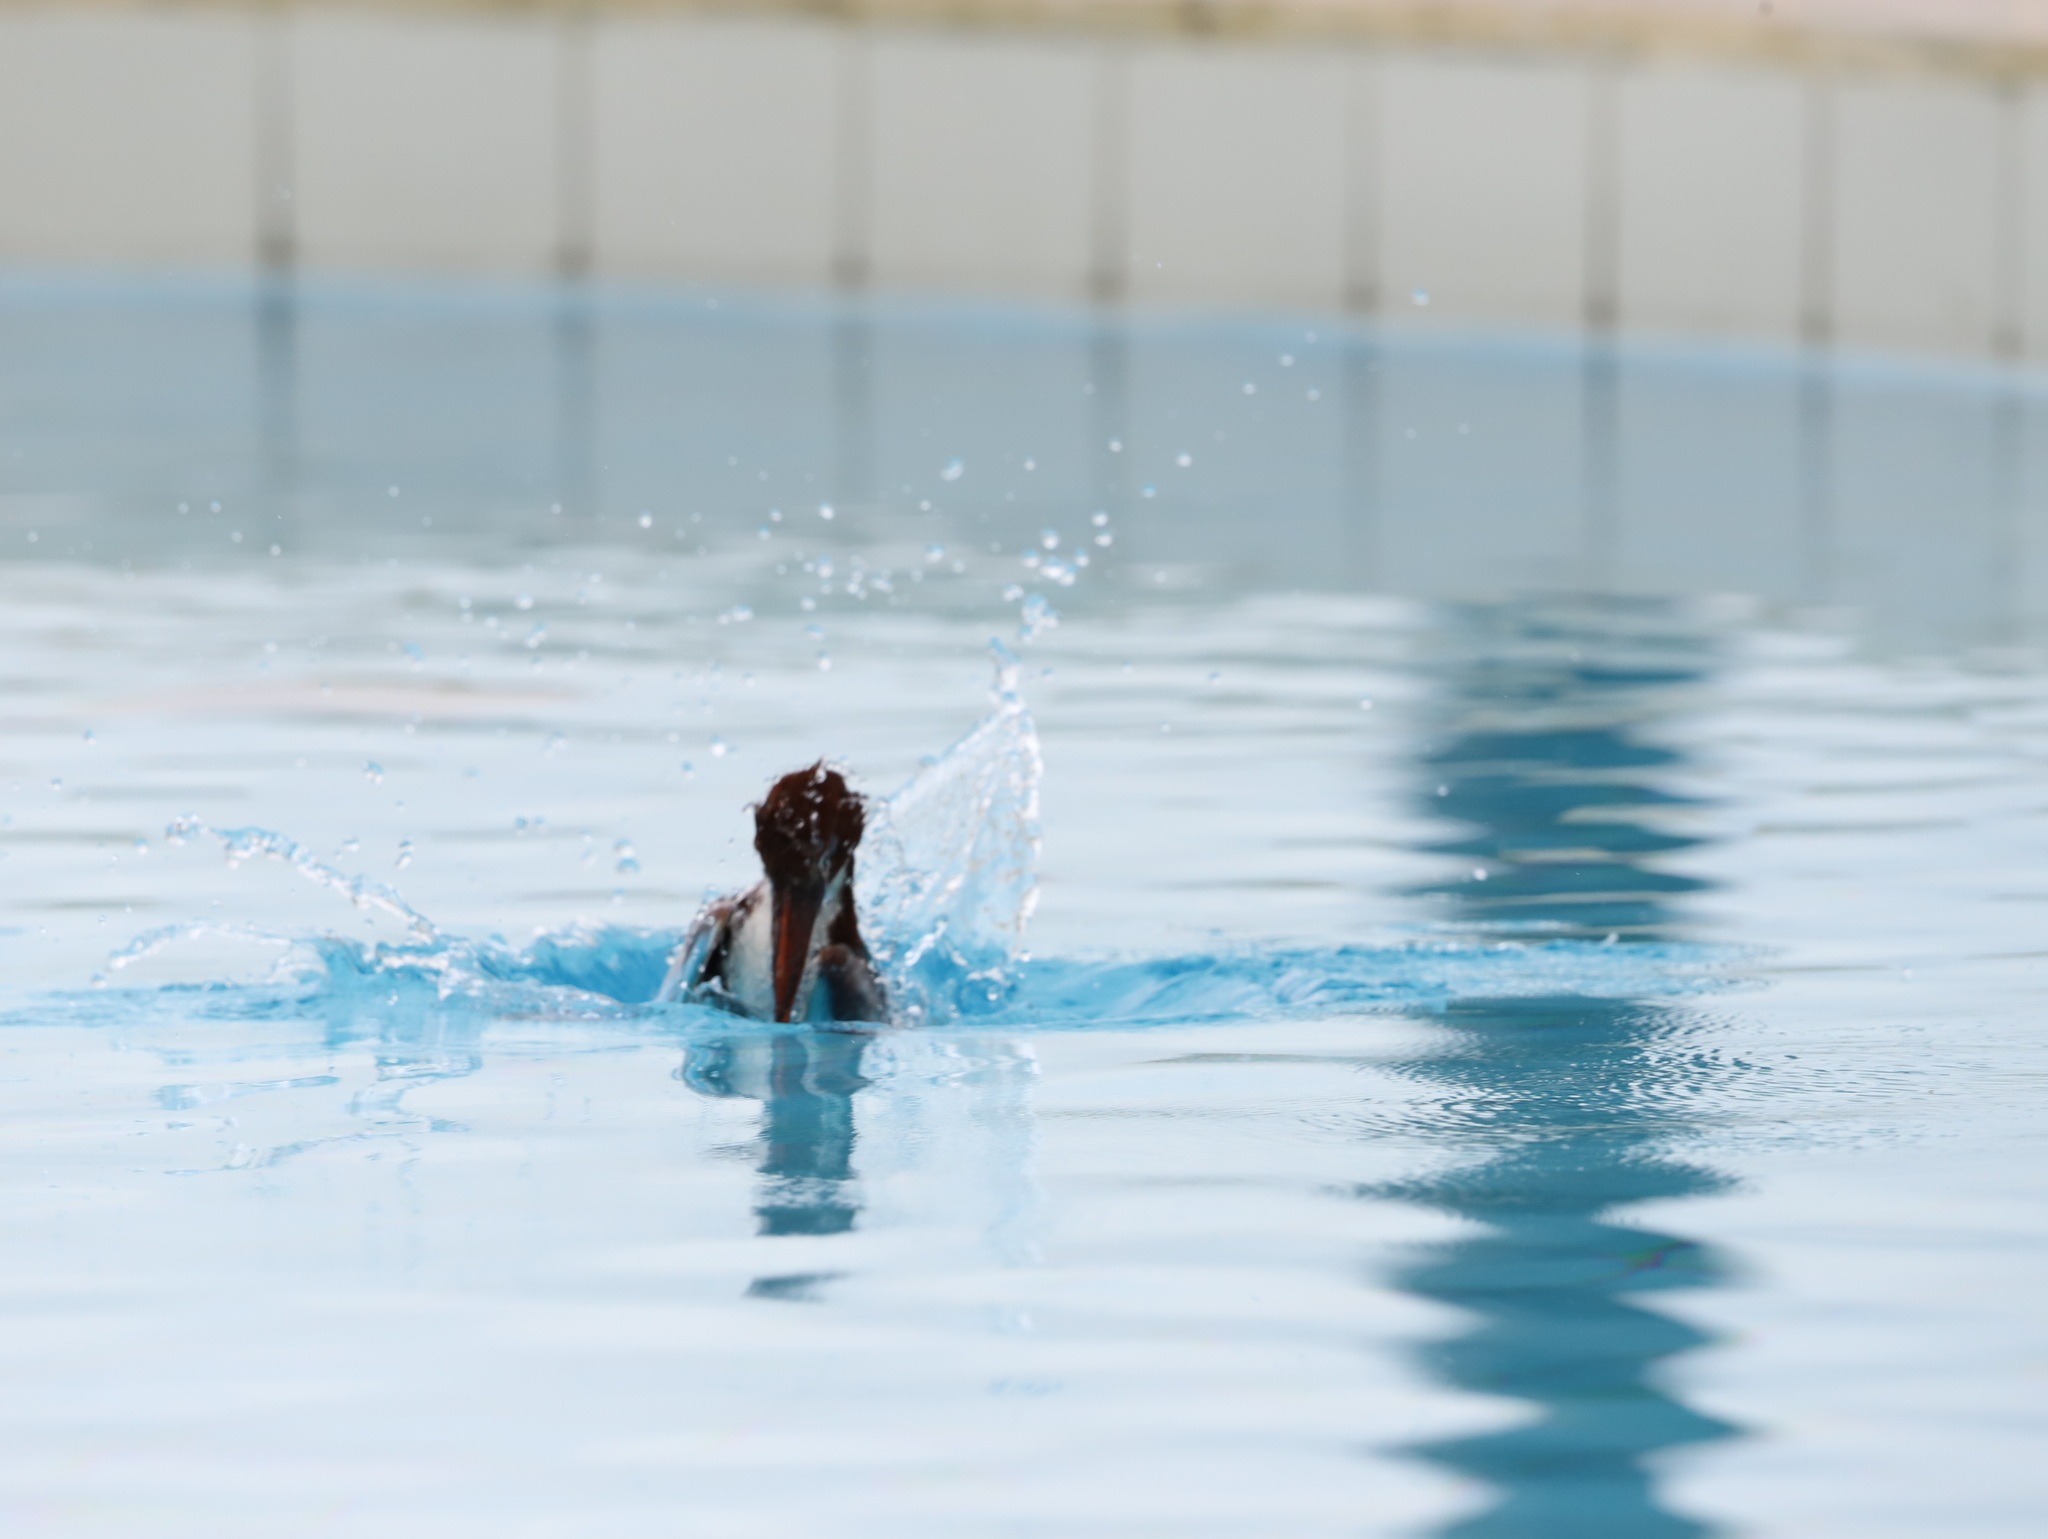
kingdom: Animalia
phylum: Chordata
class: Aves
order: Coraciiformes
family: Alcedinidae
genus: Halcyon
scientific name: Halcyon smyrnensis
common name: White-throated kingfisher
